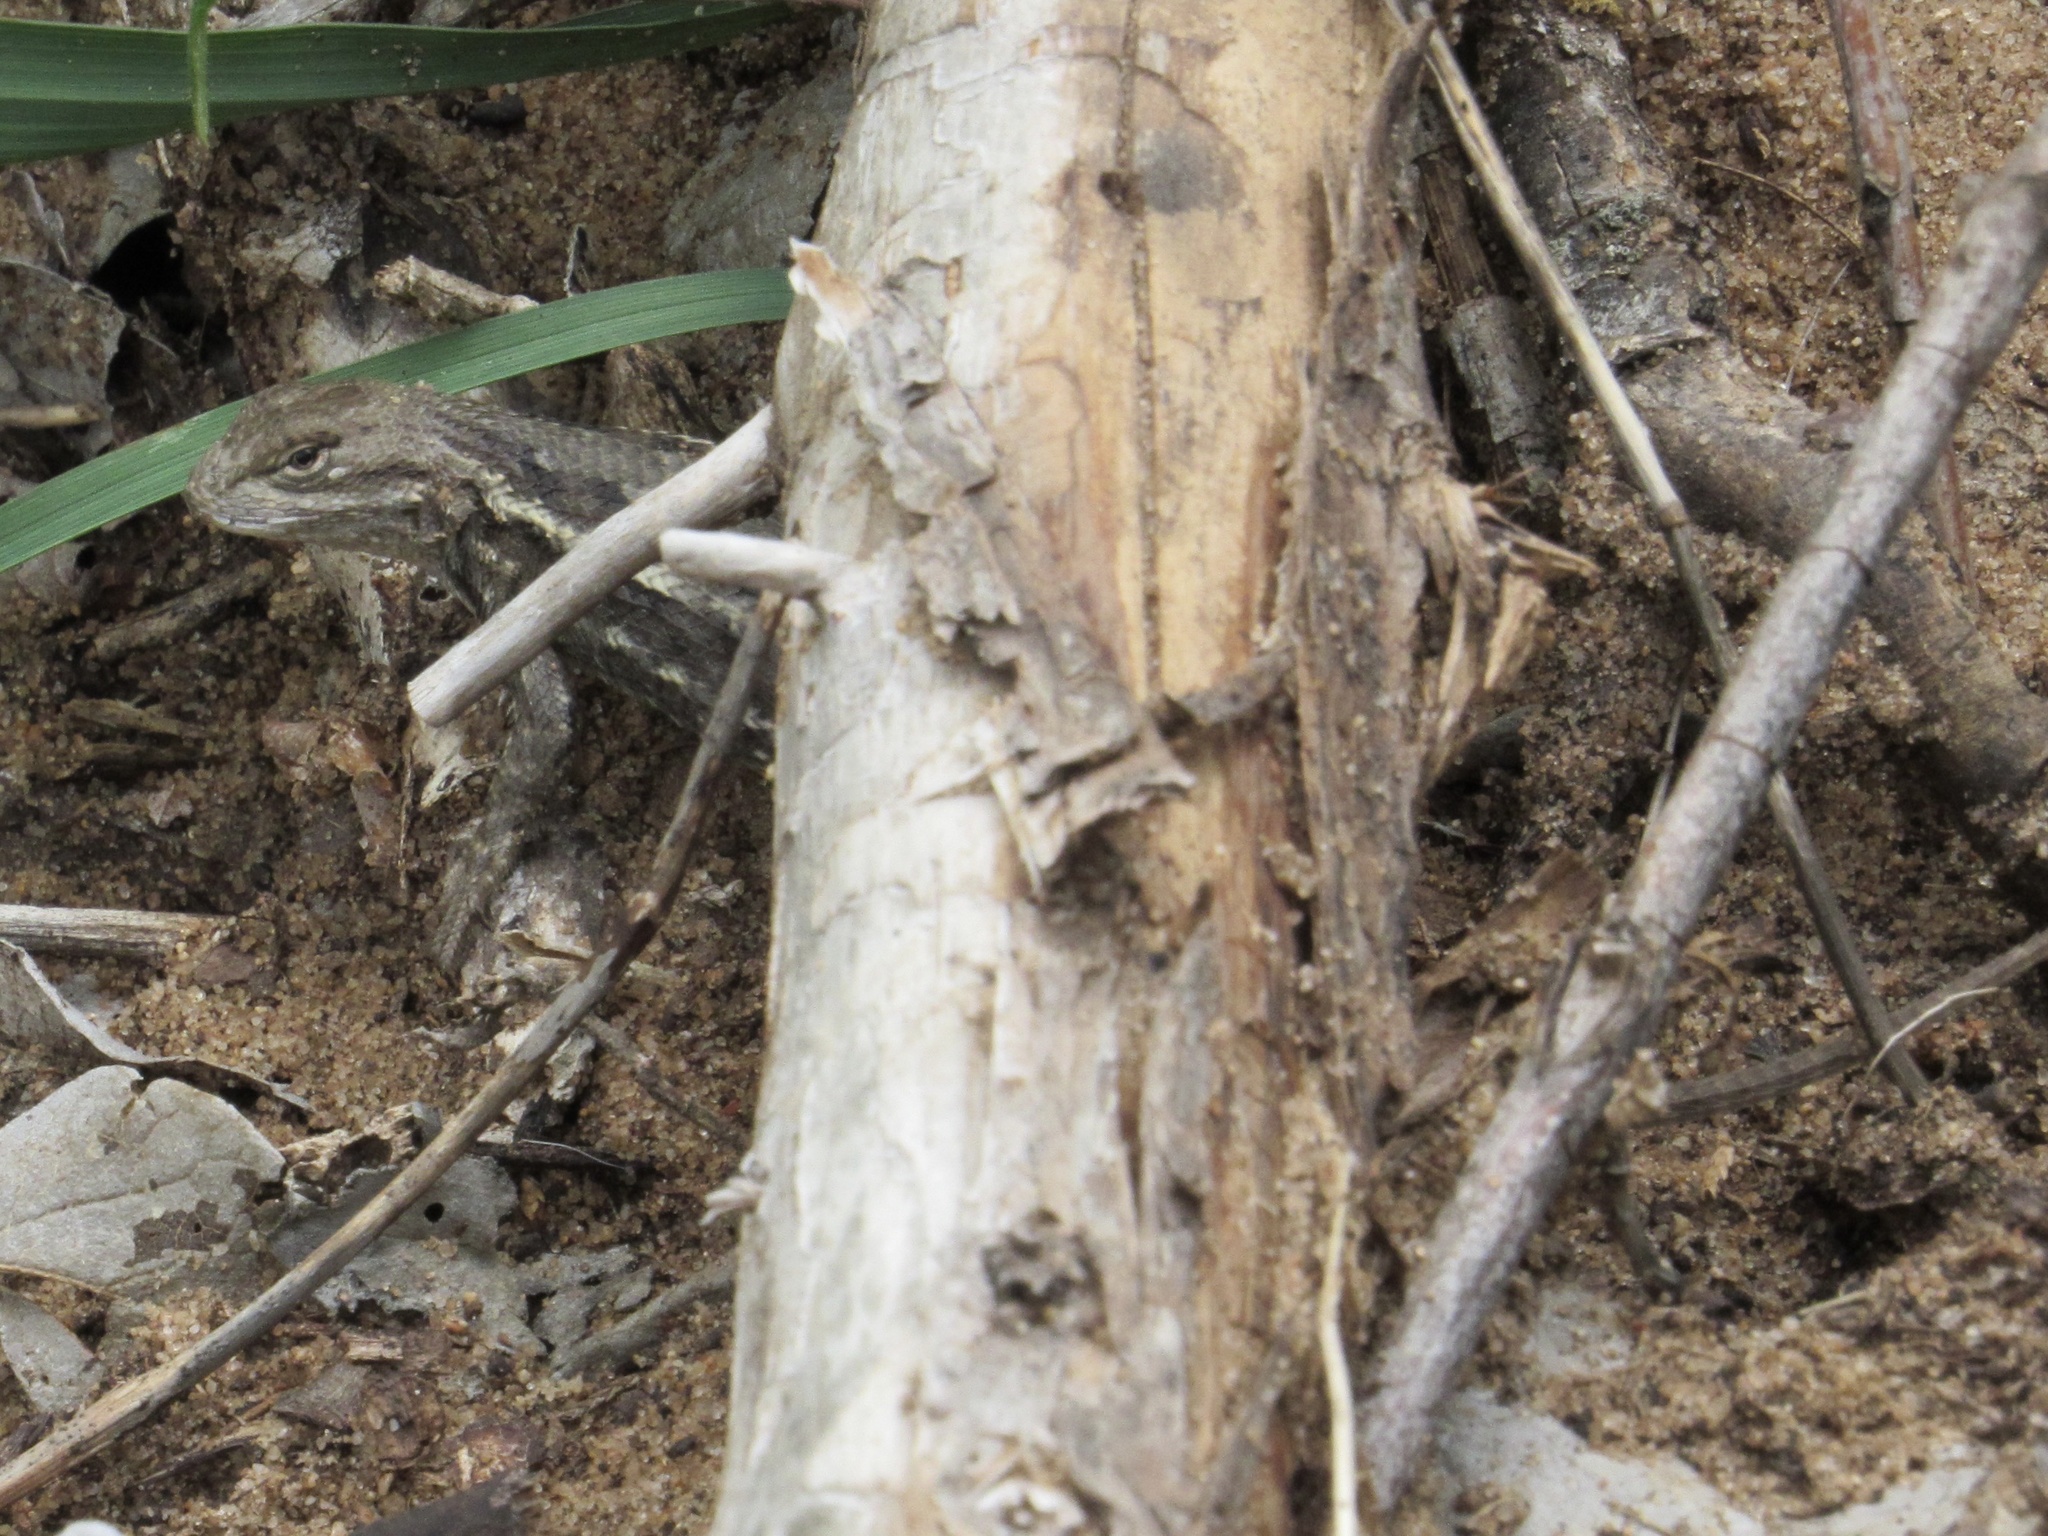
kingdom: Animalia
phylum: Chordata
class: Squamata
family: Phrynosomatidae
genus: Sceloporus
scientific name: Sceloporus consobrinus
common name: Southern prairie lizard
